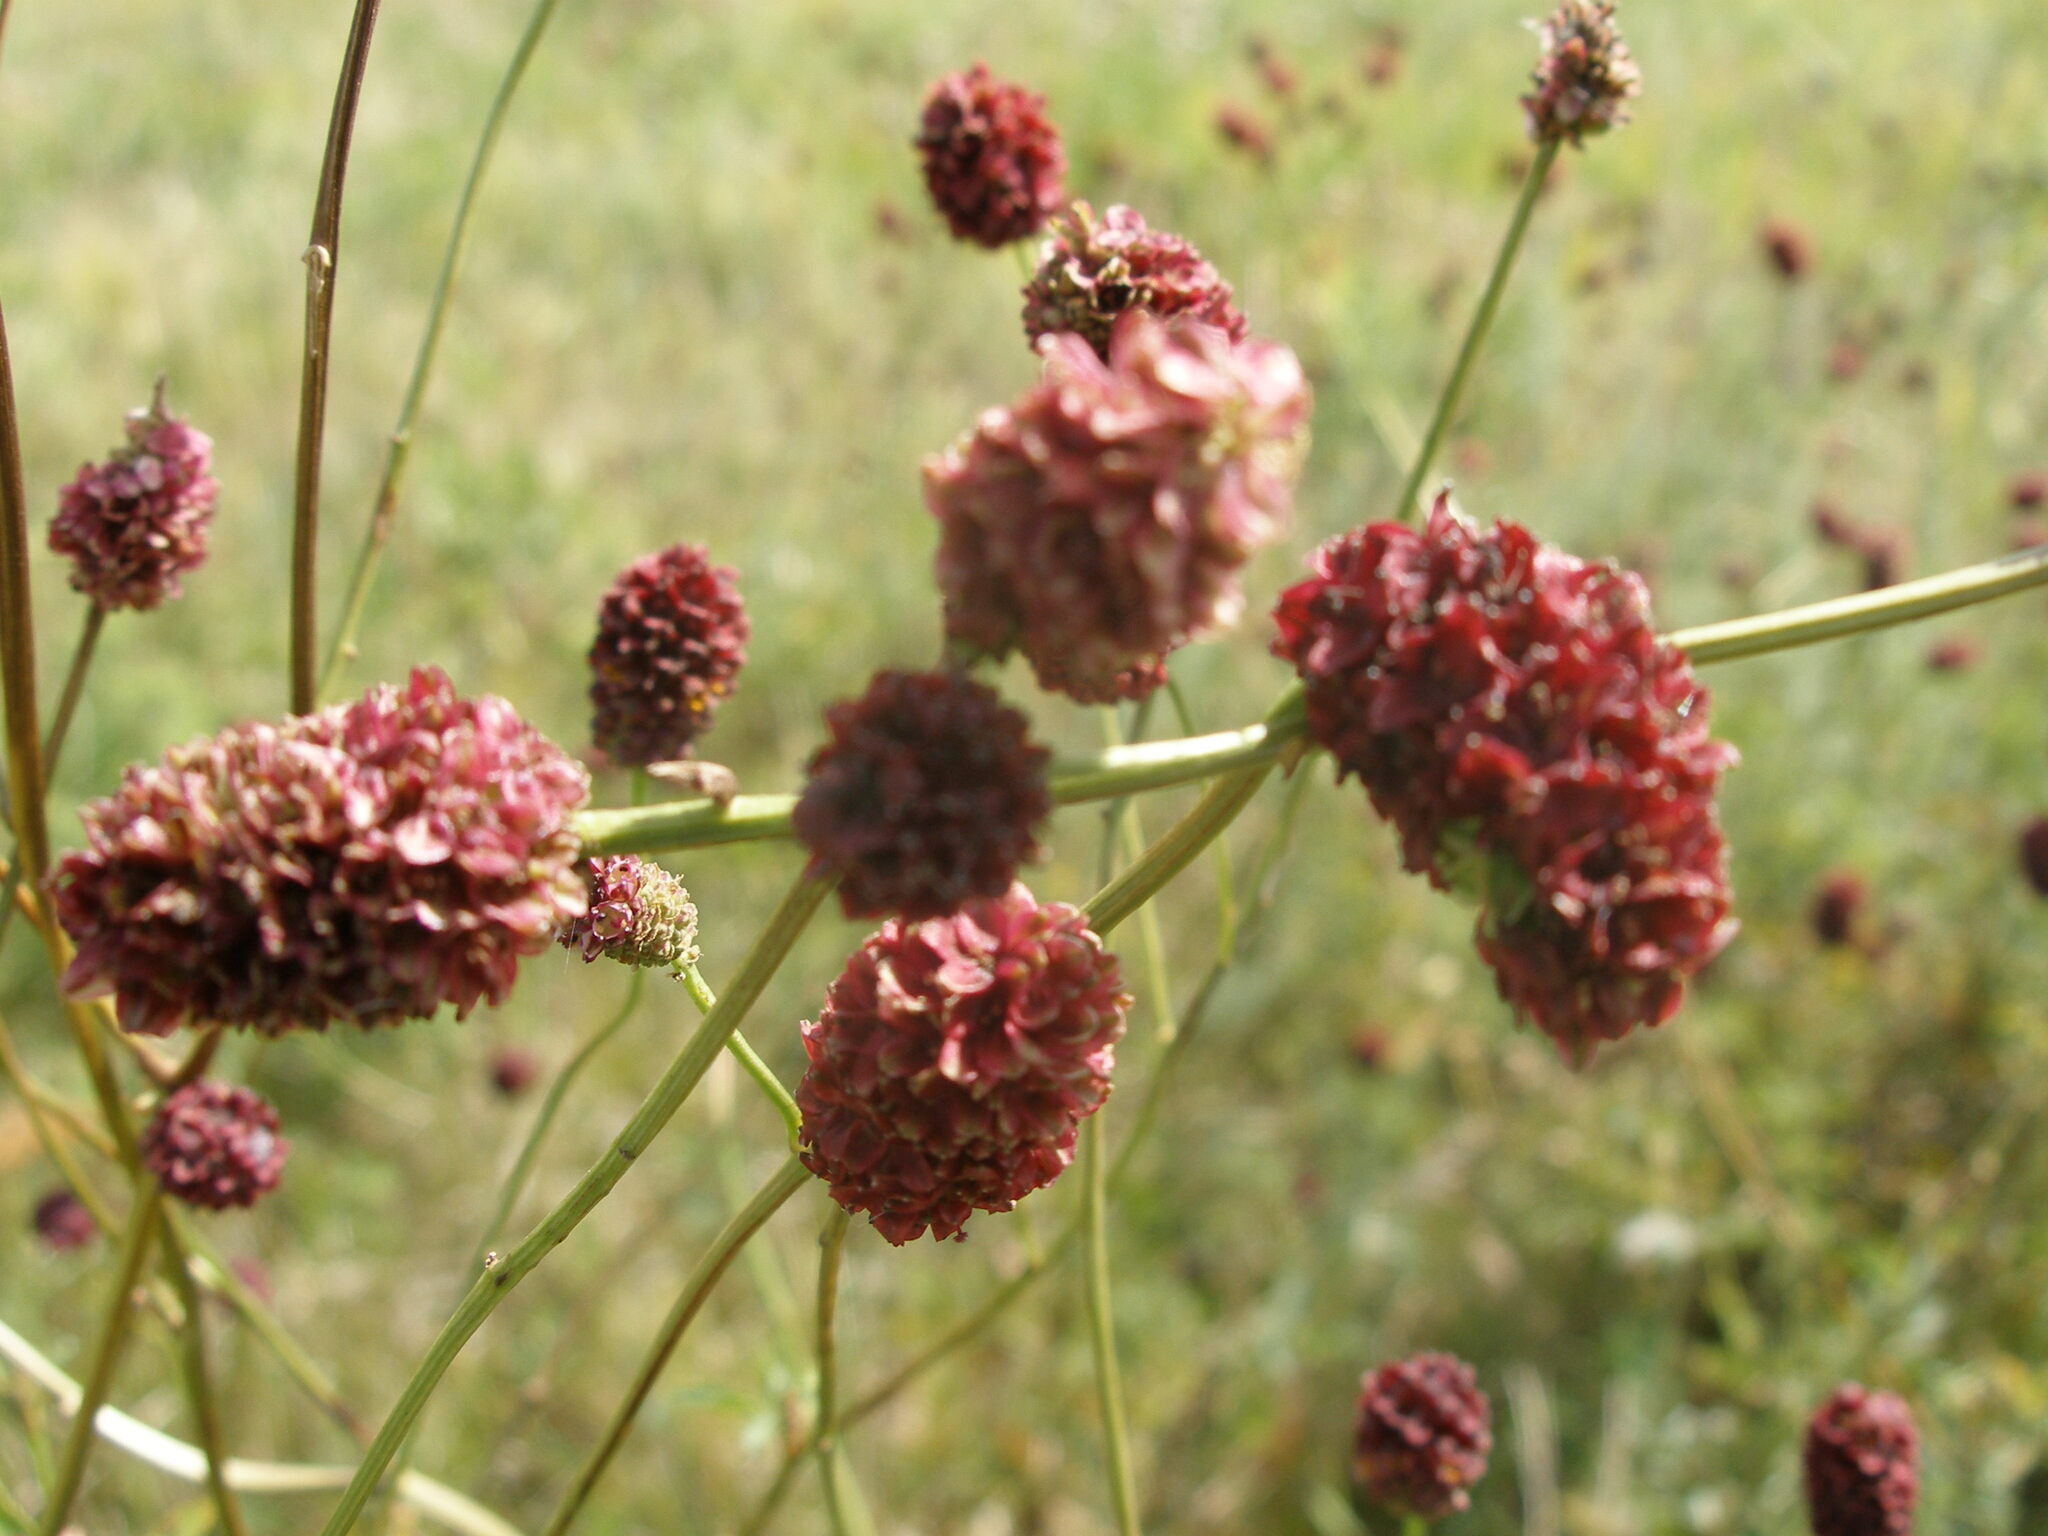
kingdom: Plantae
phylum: Tracheophyta
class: Magnoliopsida
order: Rosales
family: Rosaceae
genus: Sanguisorba
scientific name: Sanguisorba officinalis
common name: Great burnet
